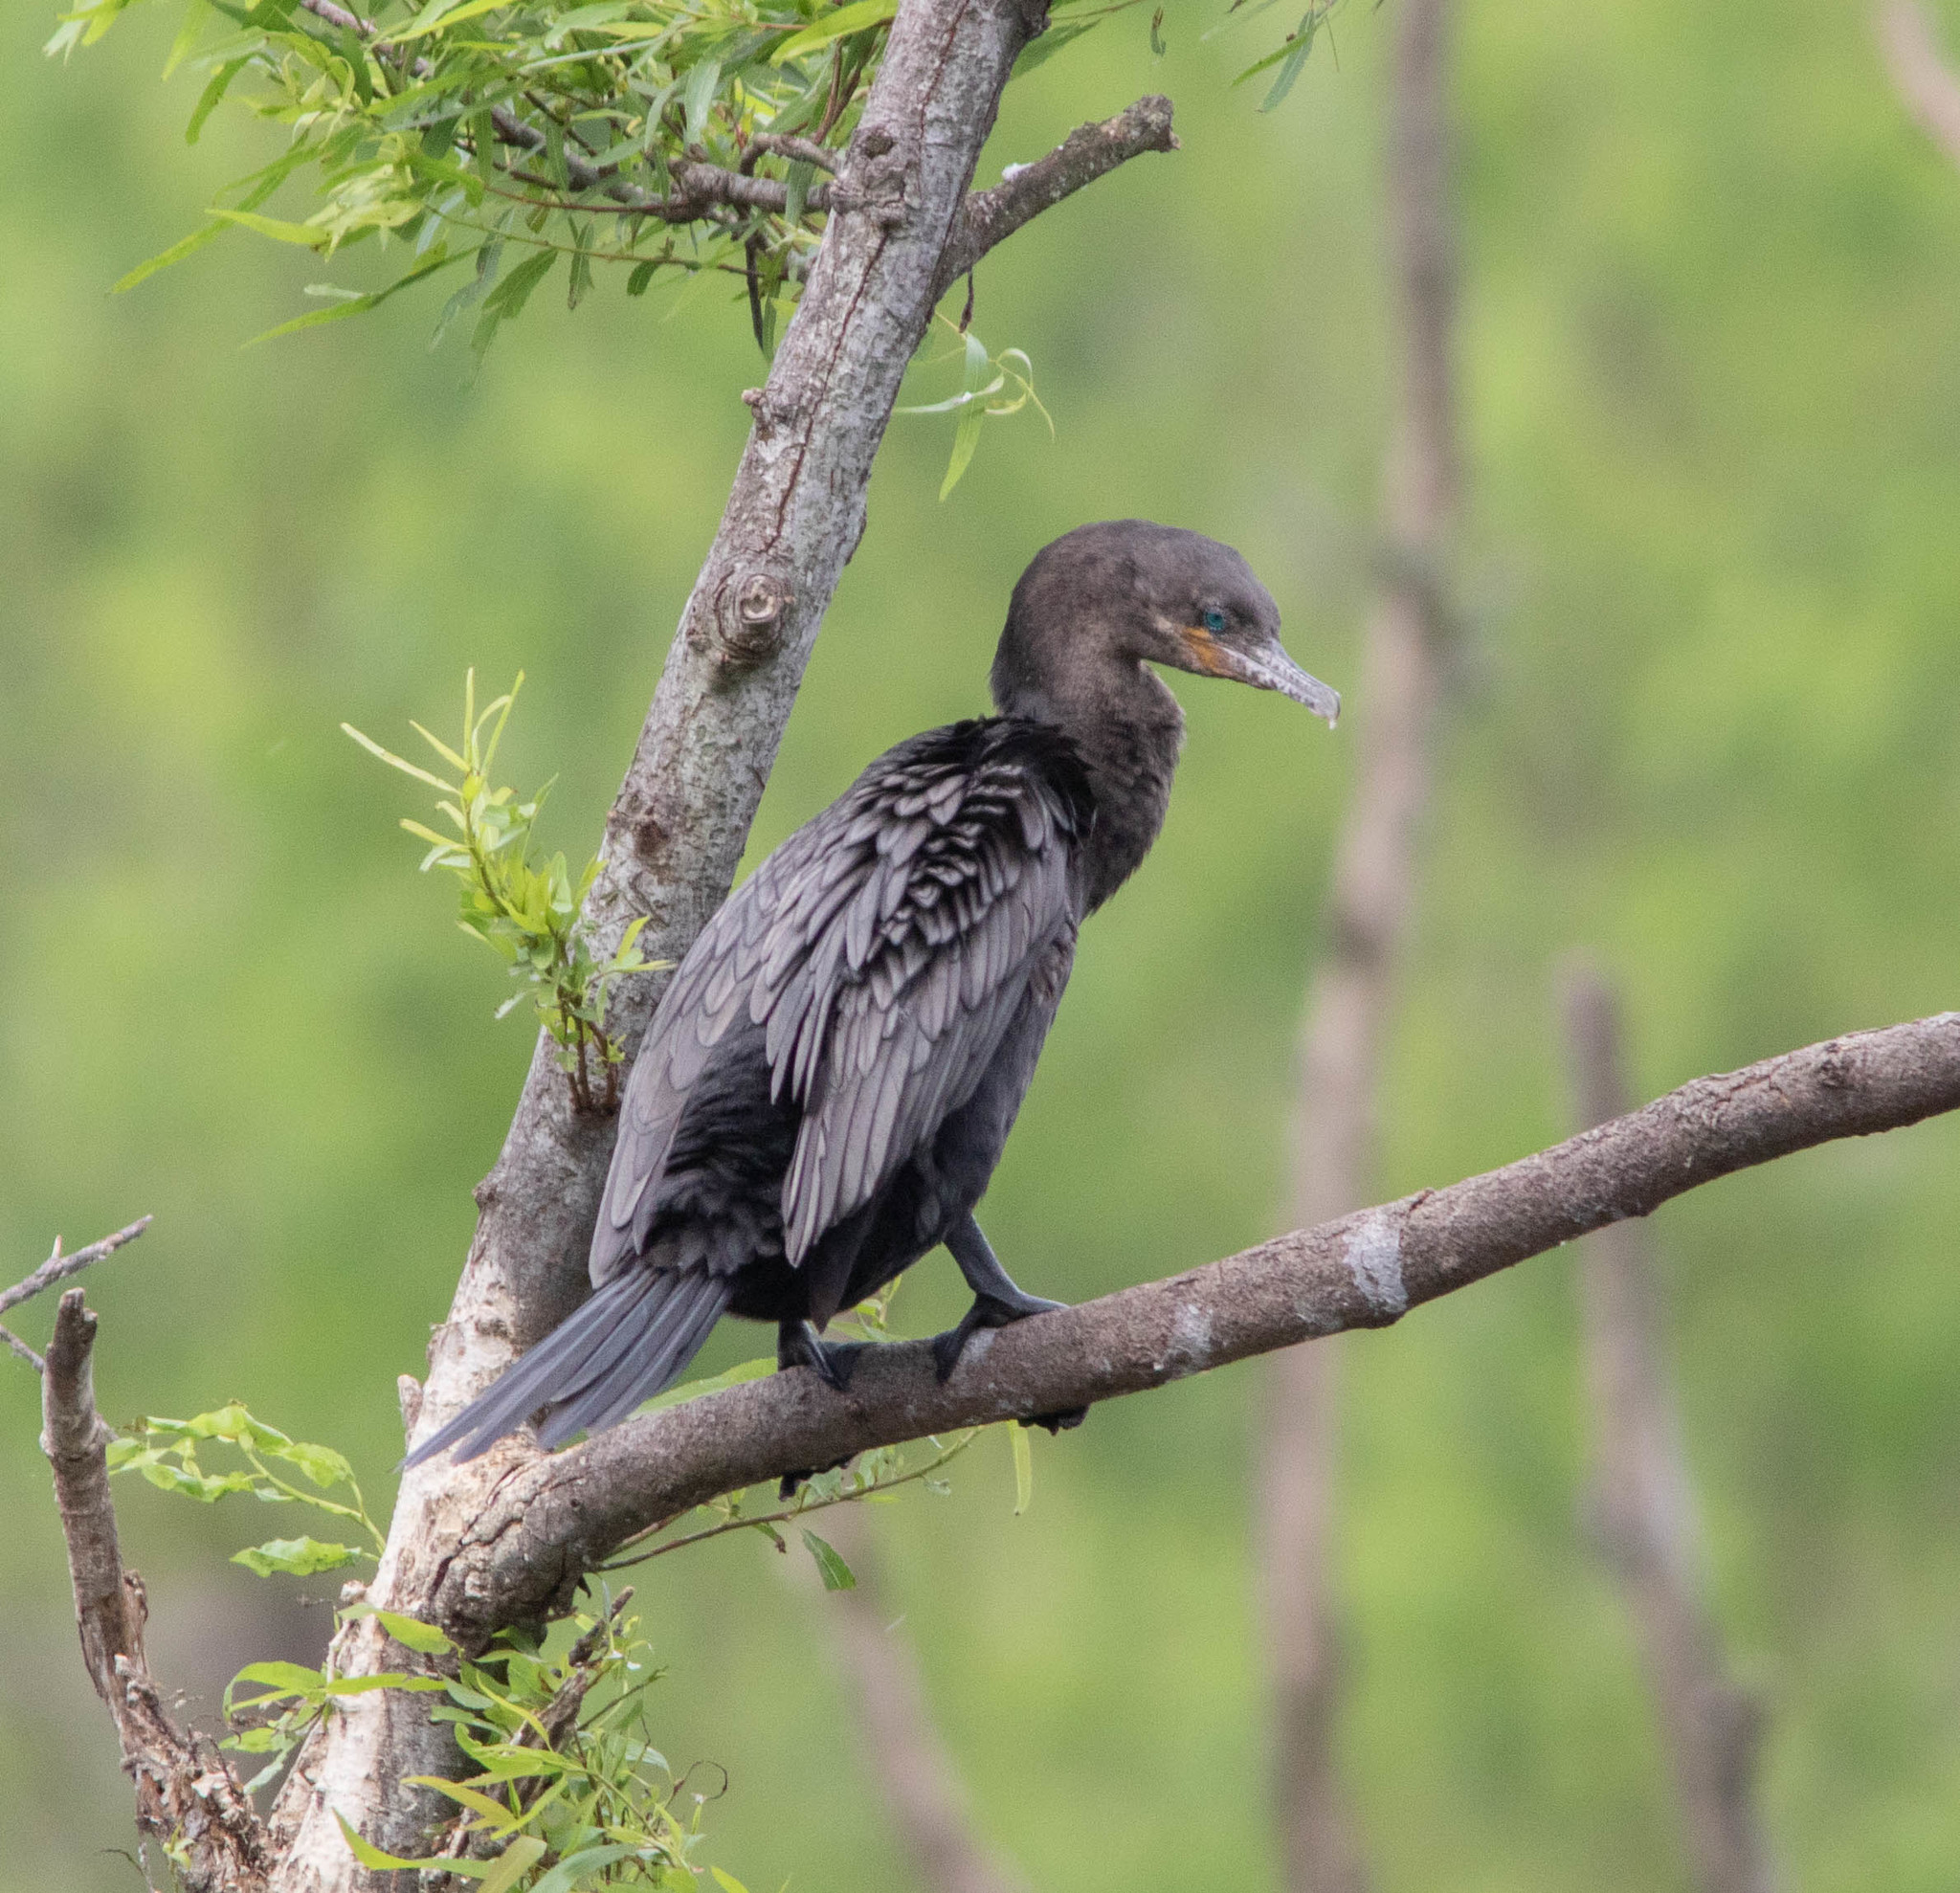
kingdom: Animalia
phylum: Chordata
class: Aves
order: Suliformes
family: Phalacrocoracidae
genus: Phalacrocorax
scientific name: Phalacrocorax brasilianus
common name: Neotropic cormorant
